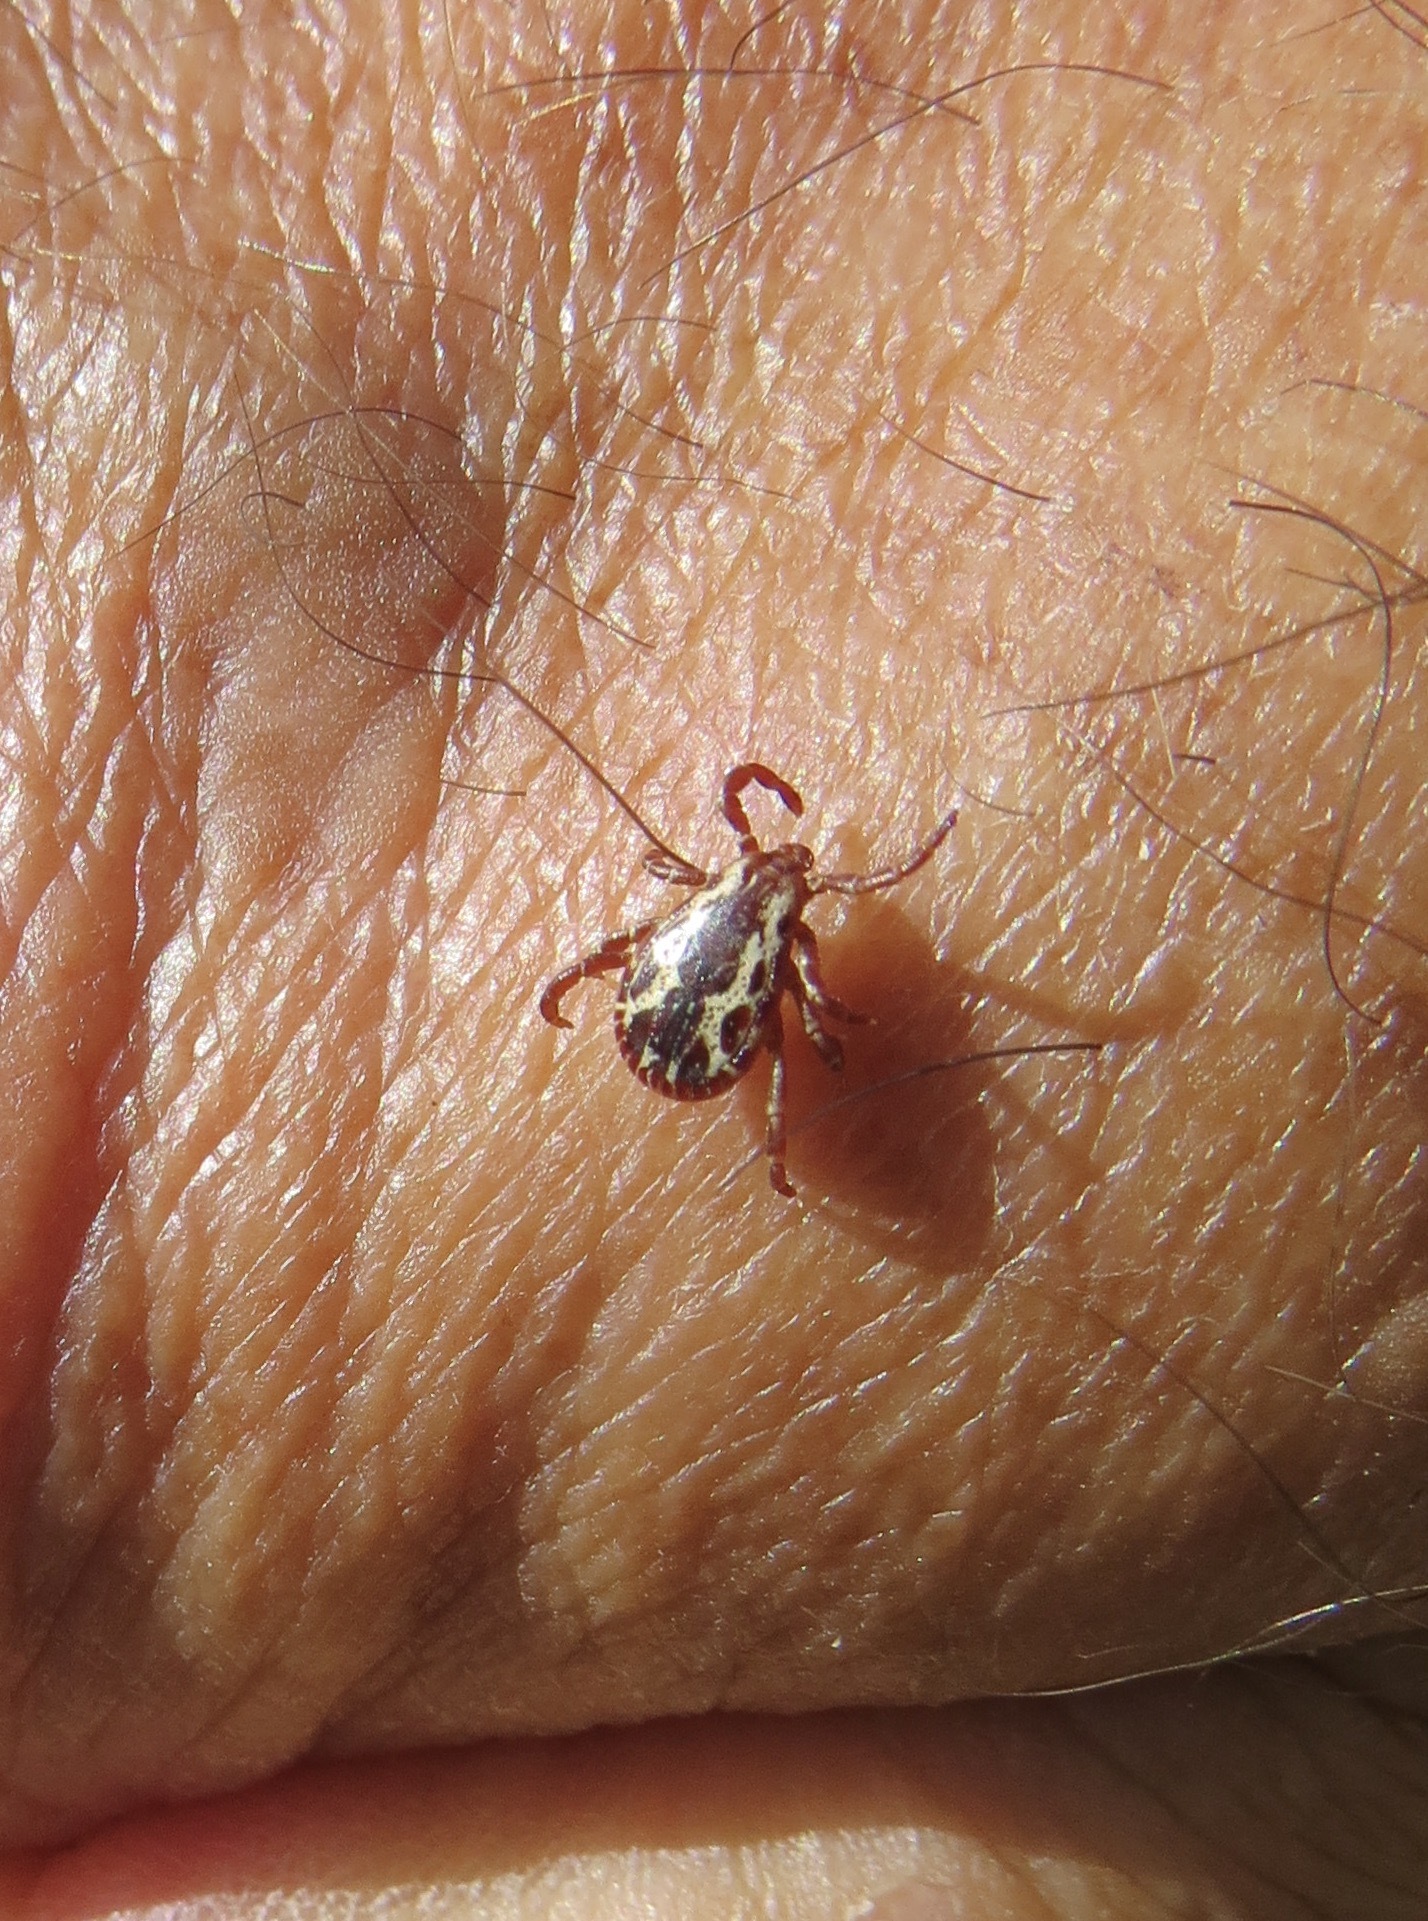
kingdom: Animalia
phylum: Arthropoda
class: Arachnida
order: Ixodida
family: Ixodidae
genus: Dermacentor
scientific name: Dermacentor variabilis
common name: American dog tick
